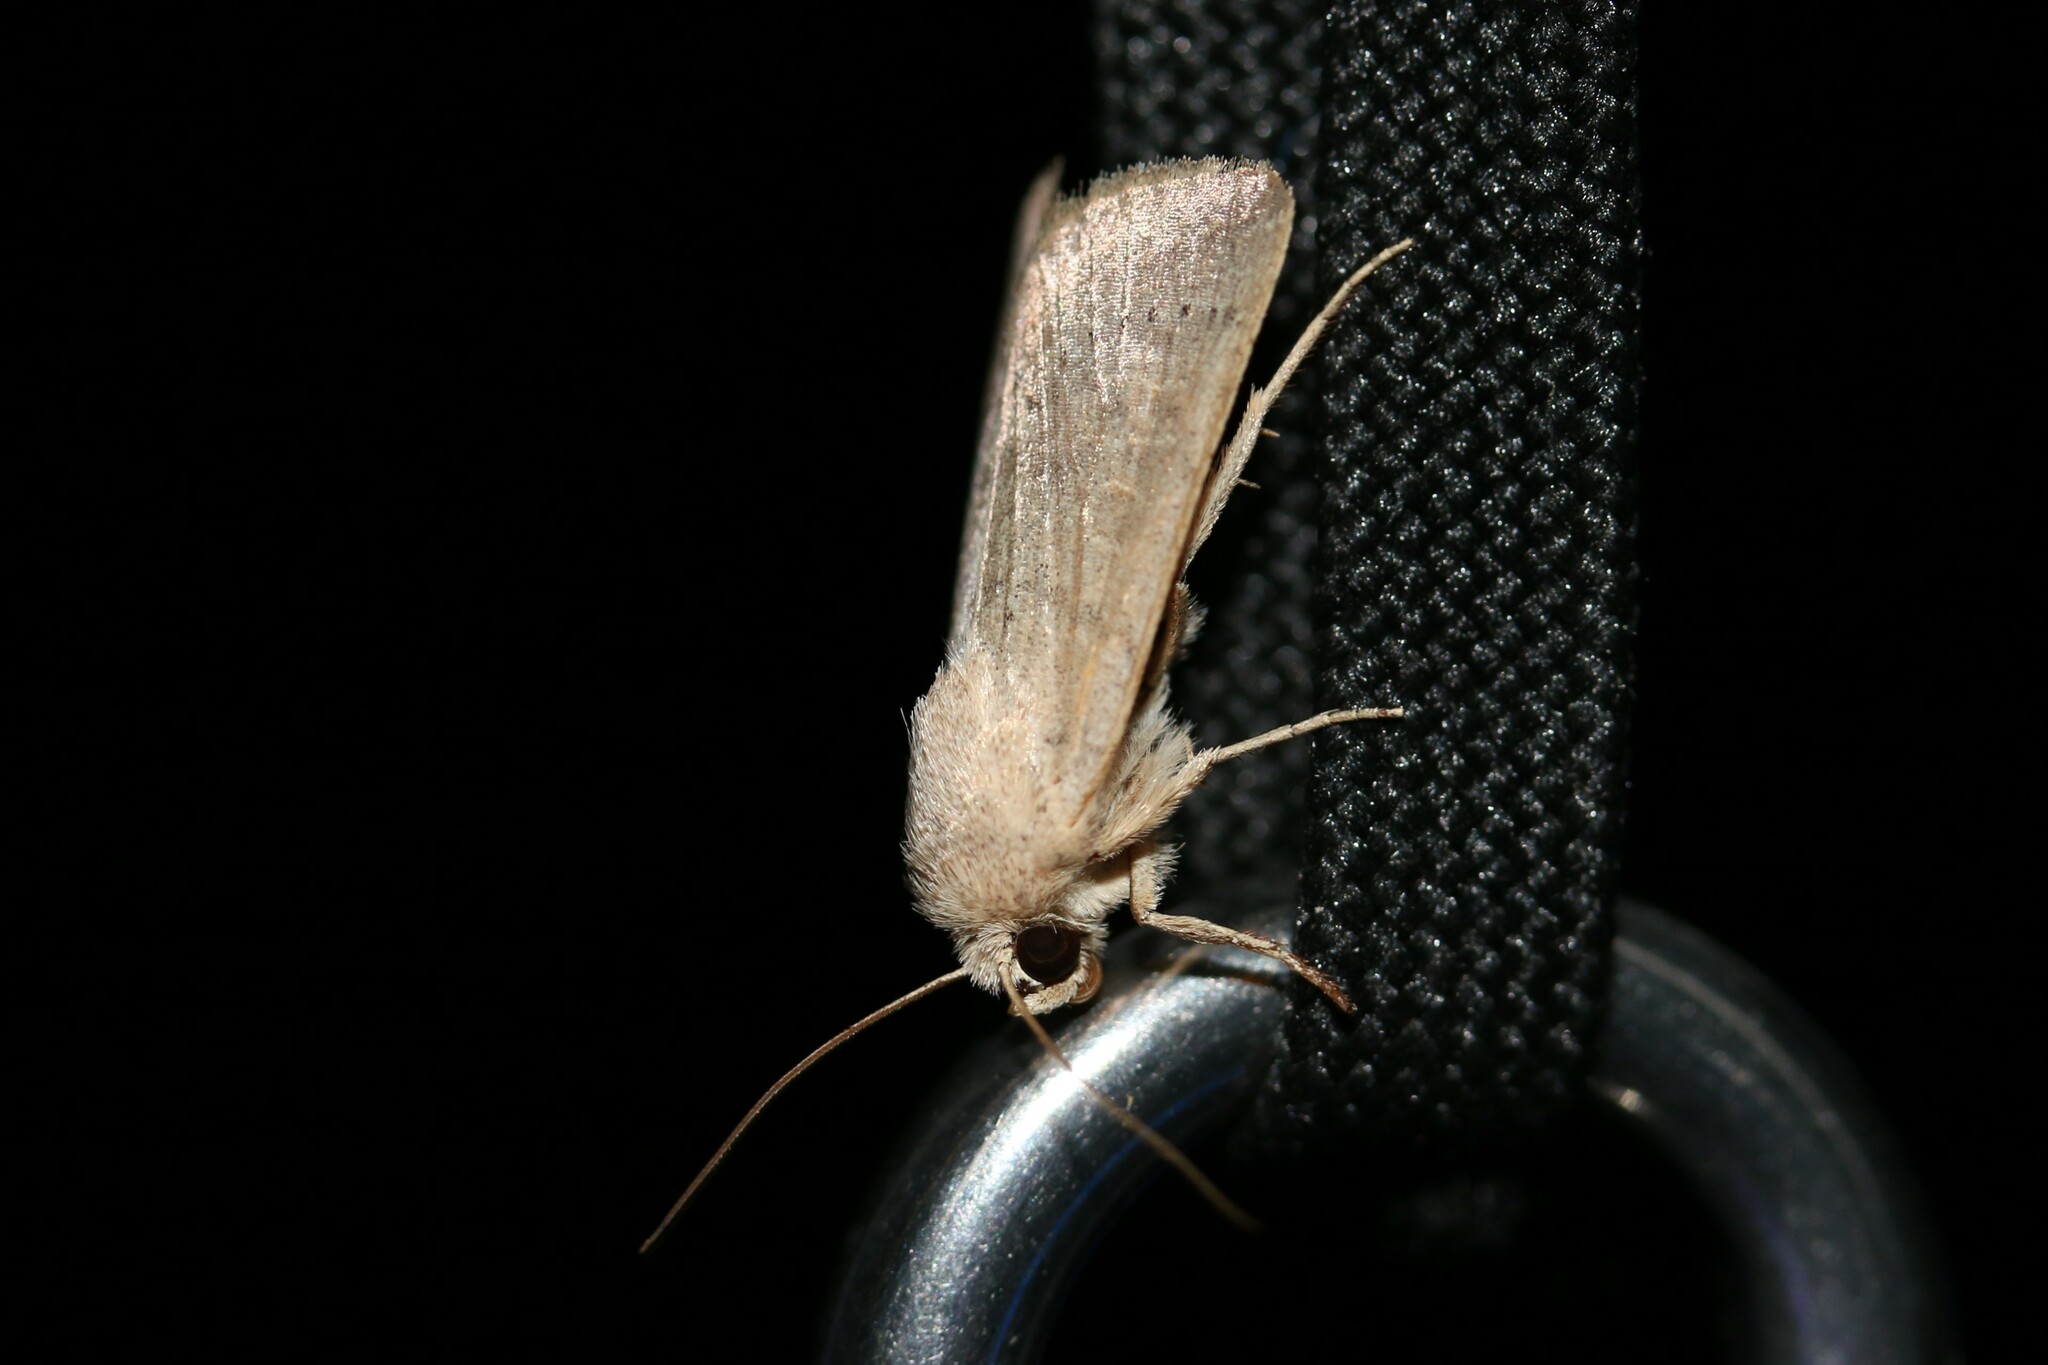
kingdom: Animalia
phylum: Arthropoda
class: Insecta
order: Lepidoptera
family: Noctuidae
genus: Hoplodrina
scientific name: Hoplodrina ambigua
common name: Vine's rustic
